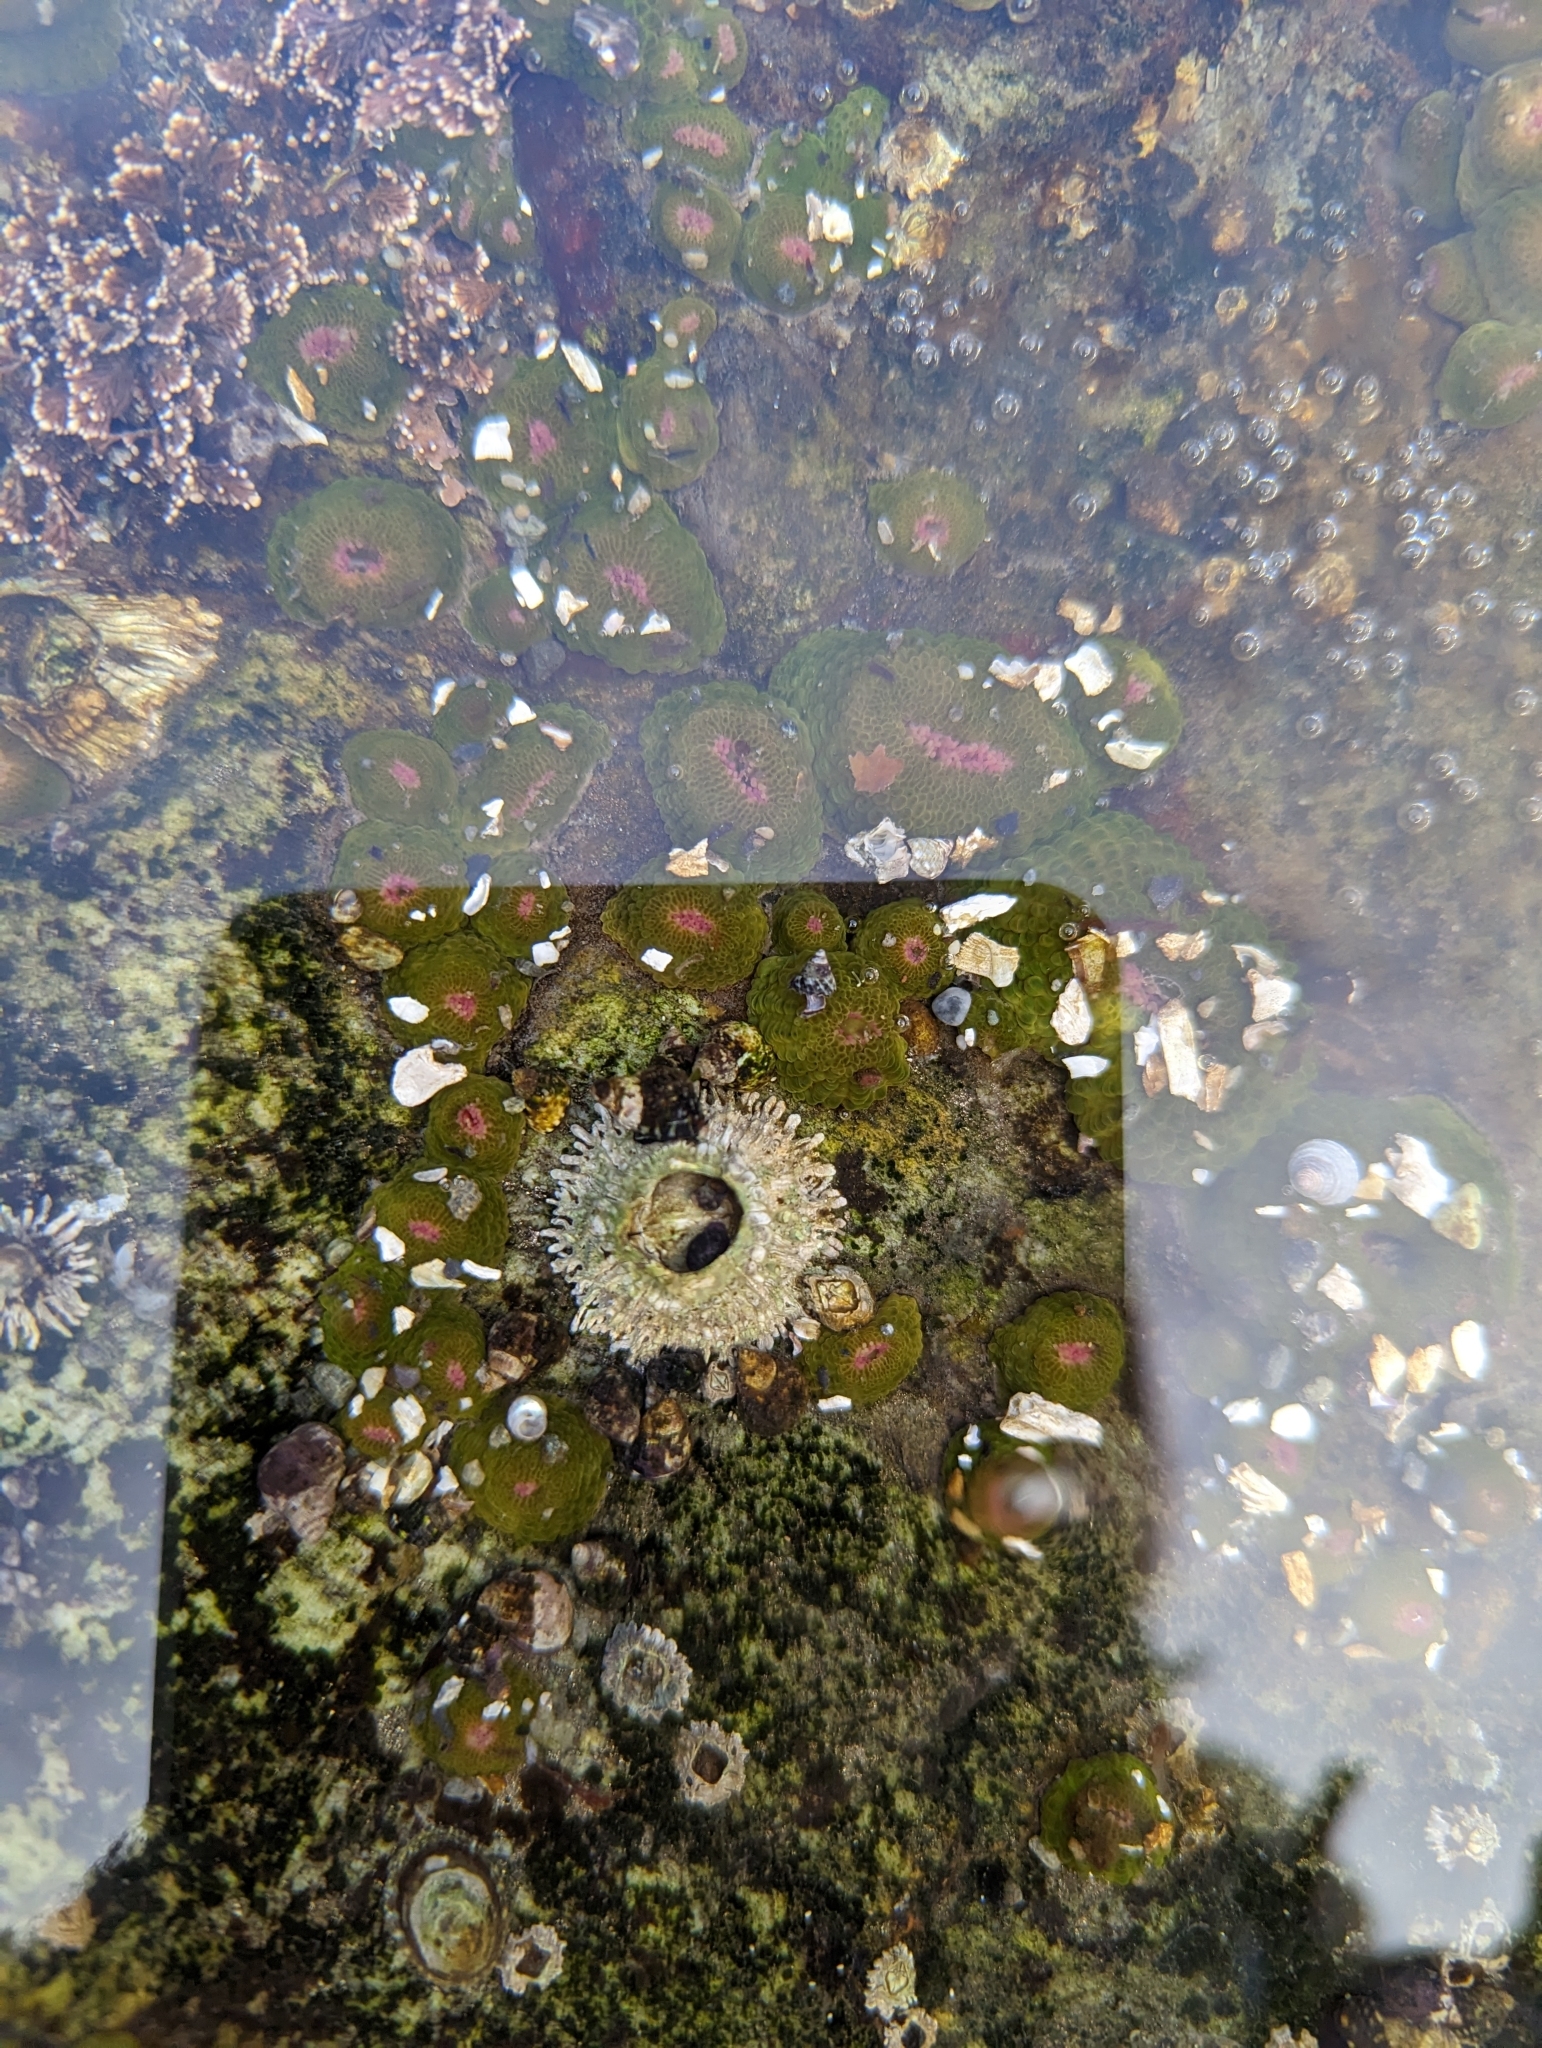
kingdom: Animalia
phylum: Arthropoda
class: Maxillopoda
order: Sessilia
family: Archaeobalanidae
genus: Semibalanus
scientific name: Semibalanus cariosus
